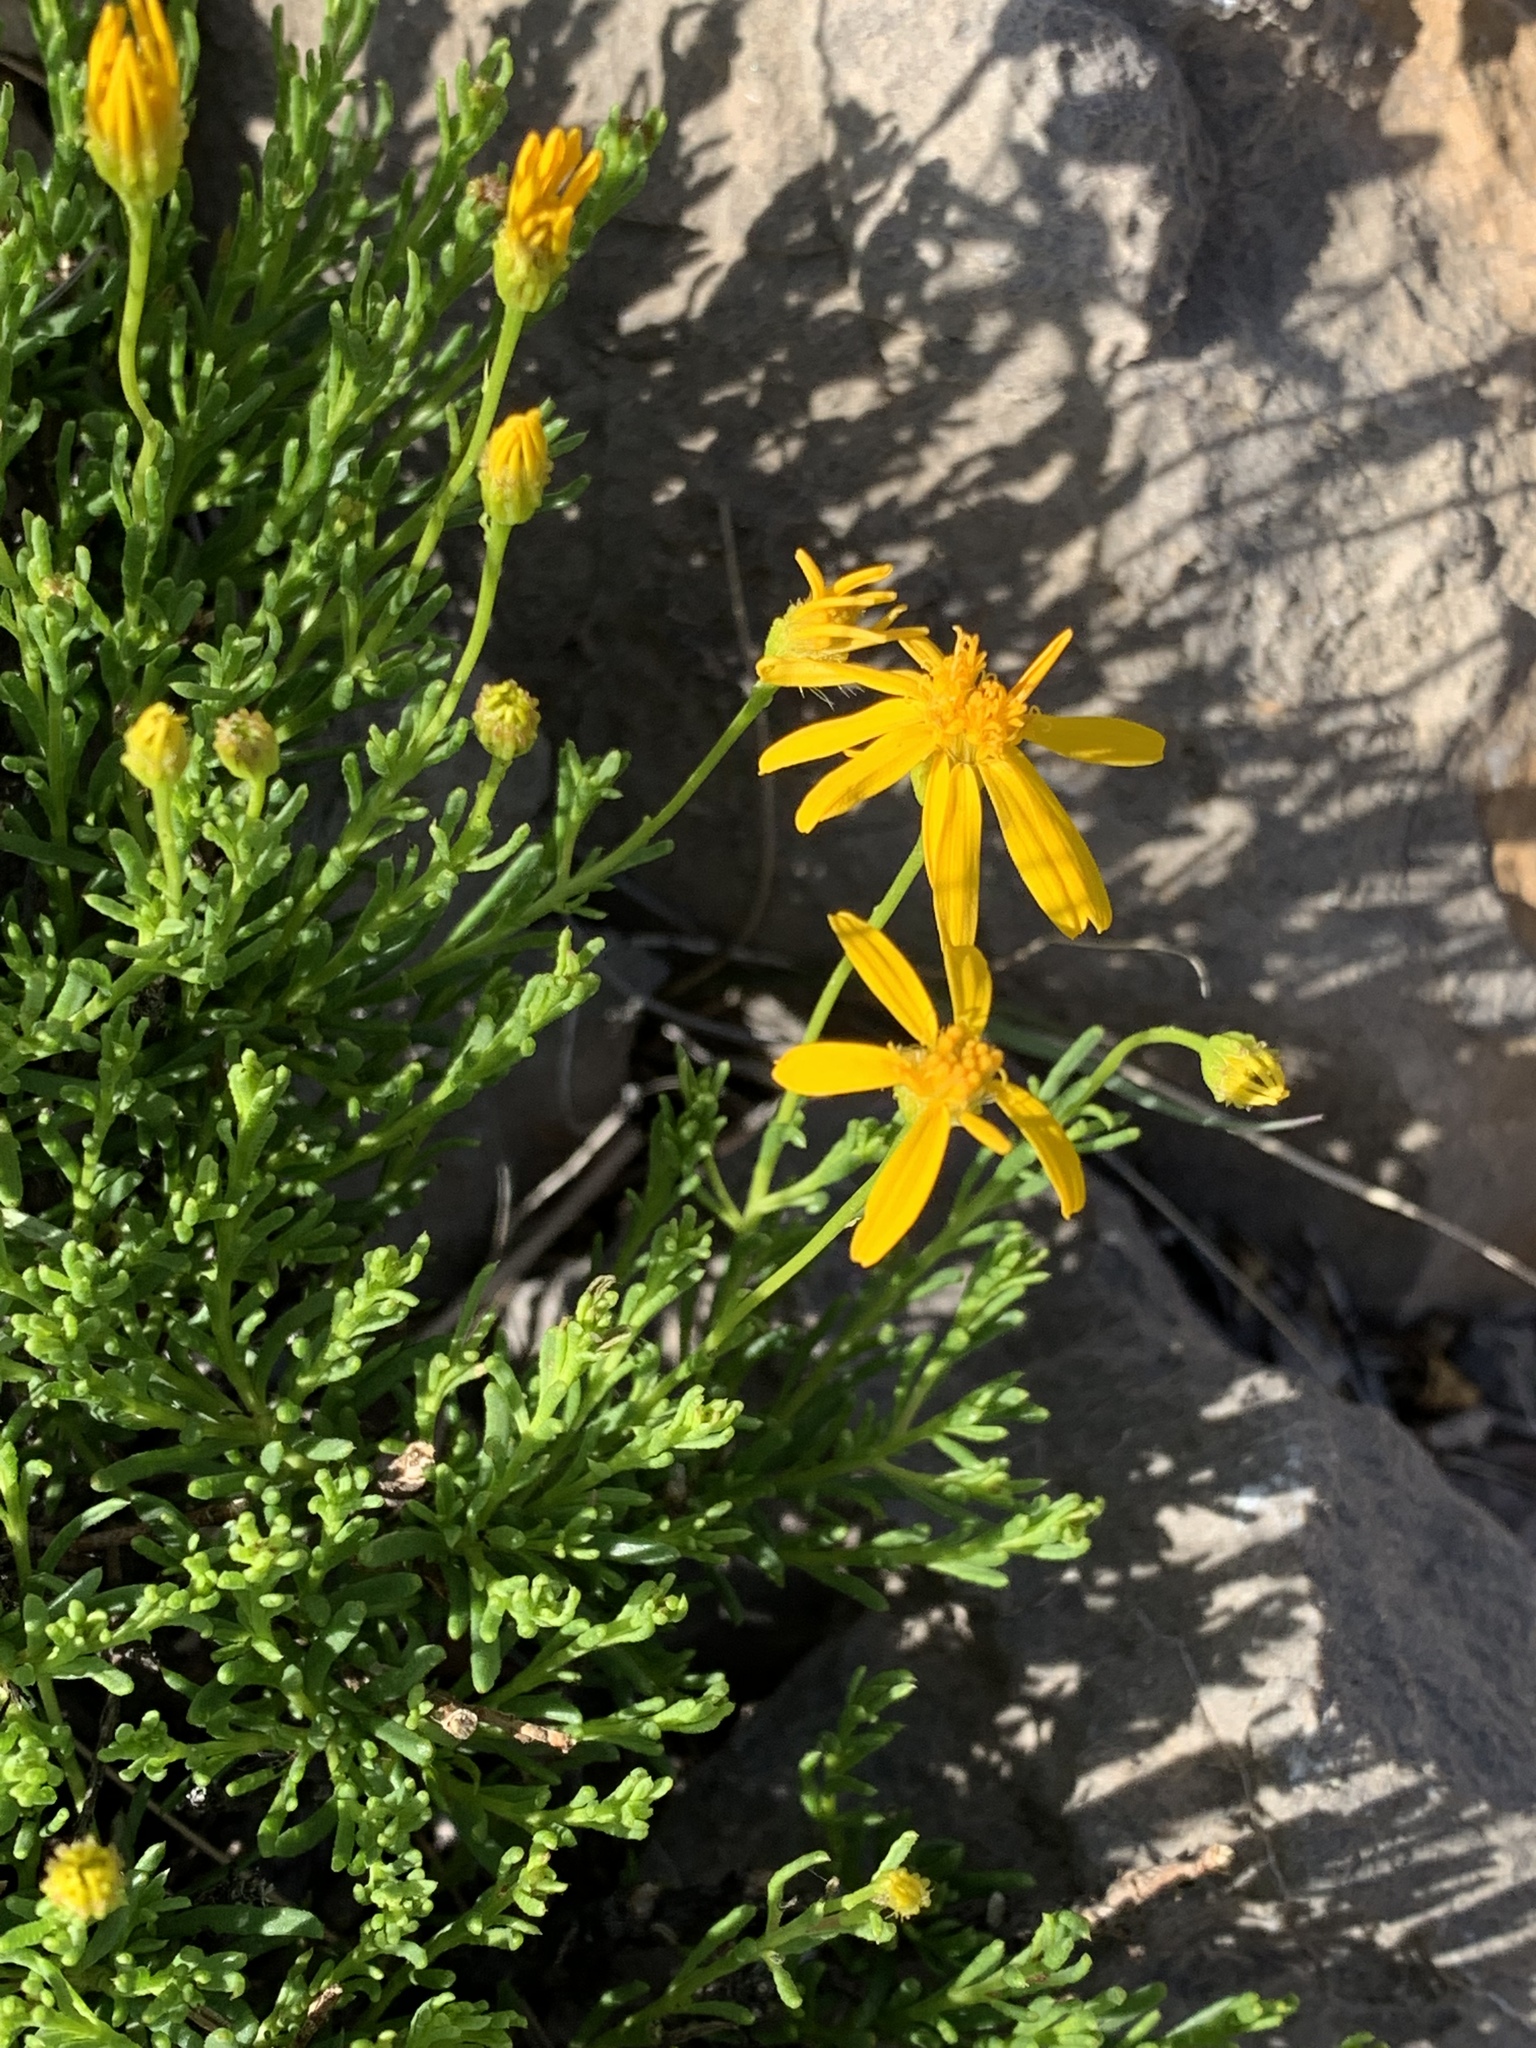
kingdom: Plantae
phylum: Tracheophyta
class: Magnoliopsida
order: Asterales
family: Asteraceae
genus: Chrysactinia
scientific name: Chrysactinia mexicana
